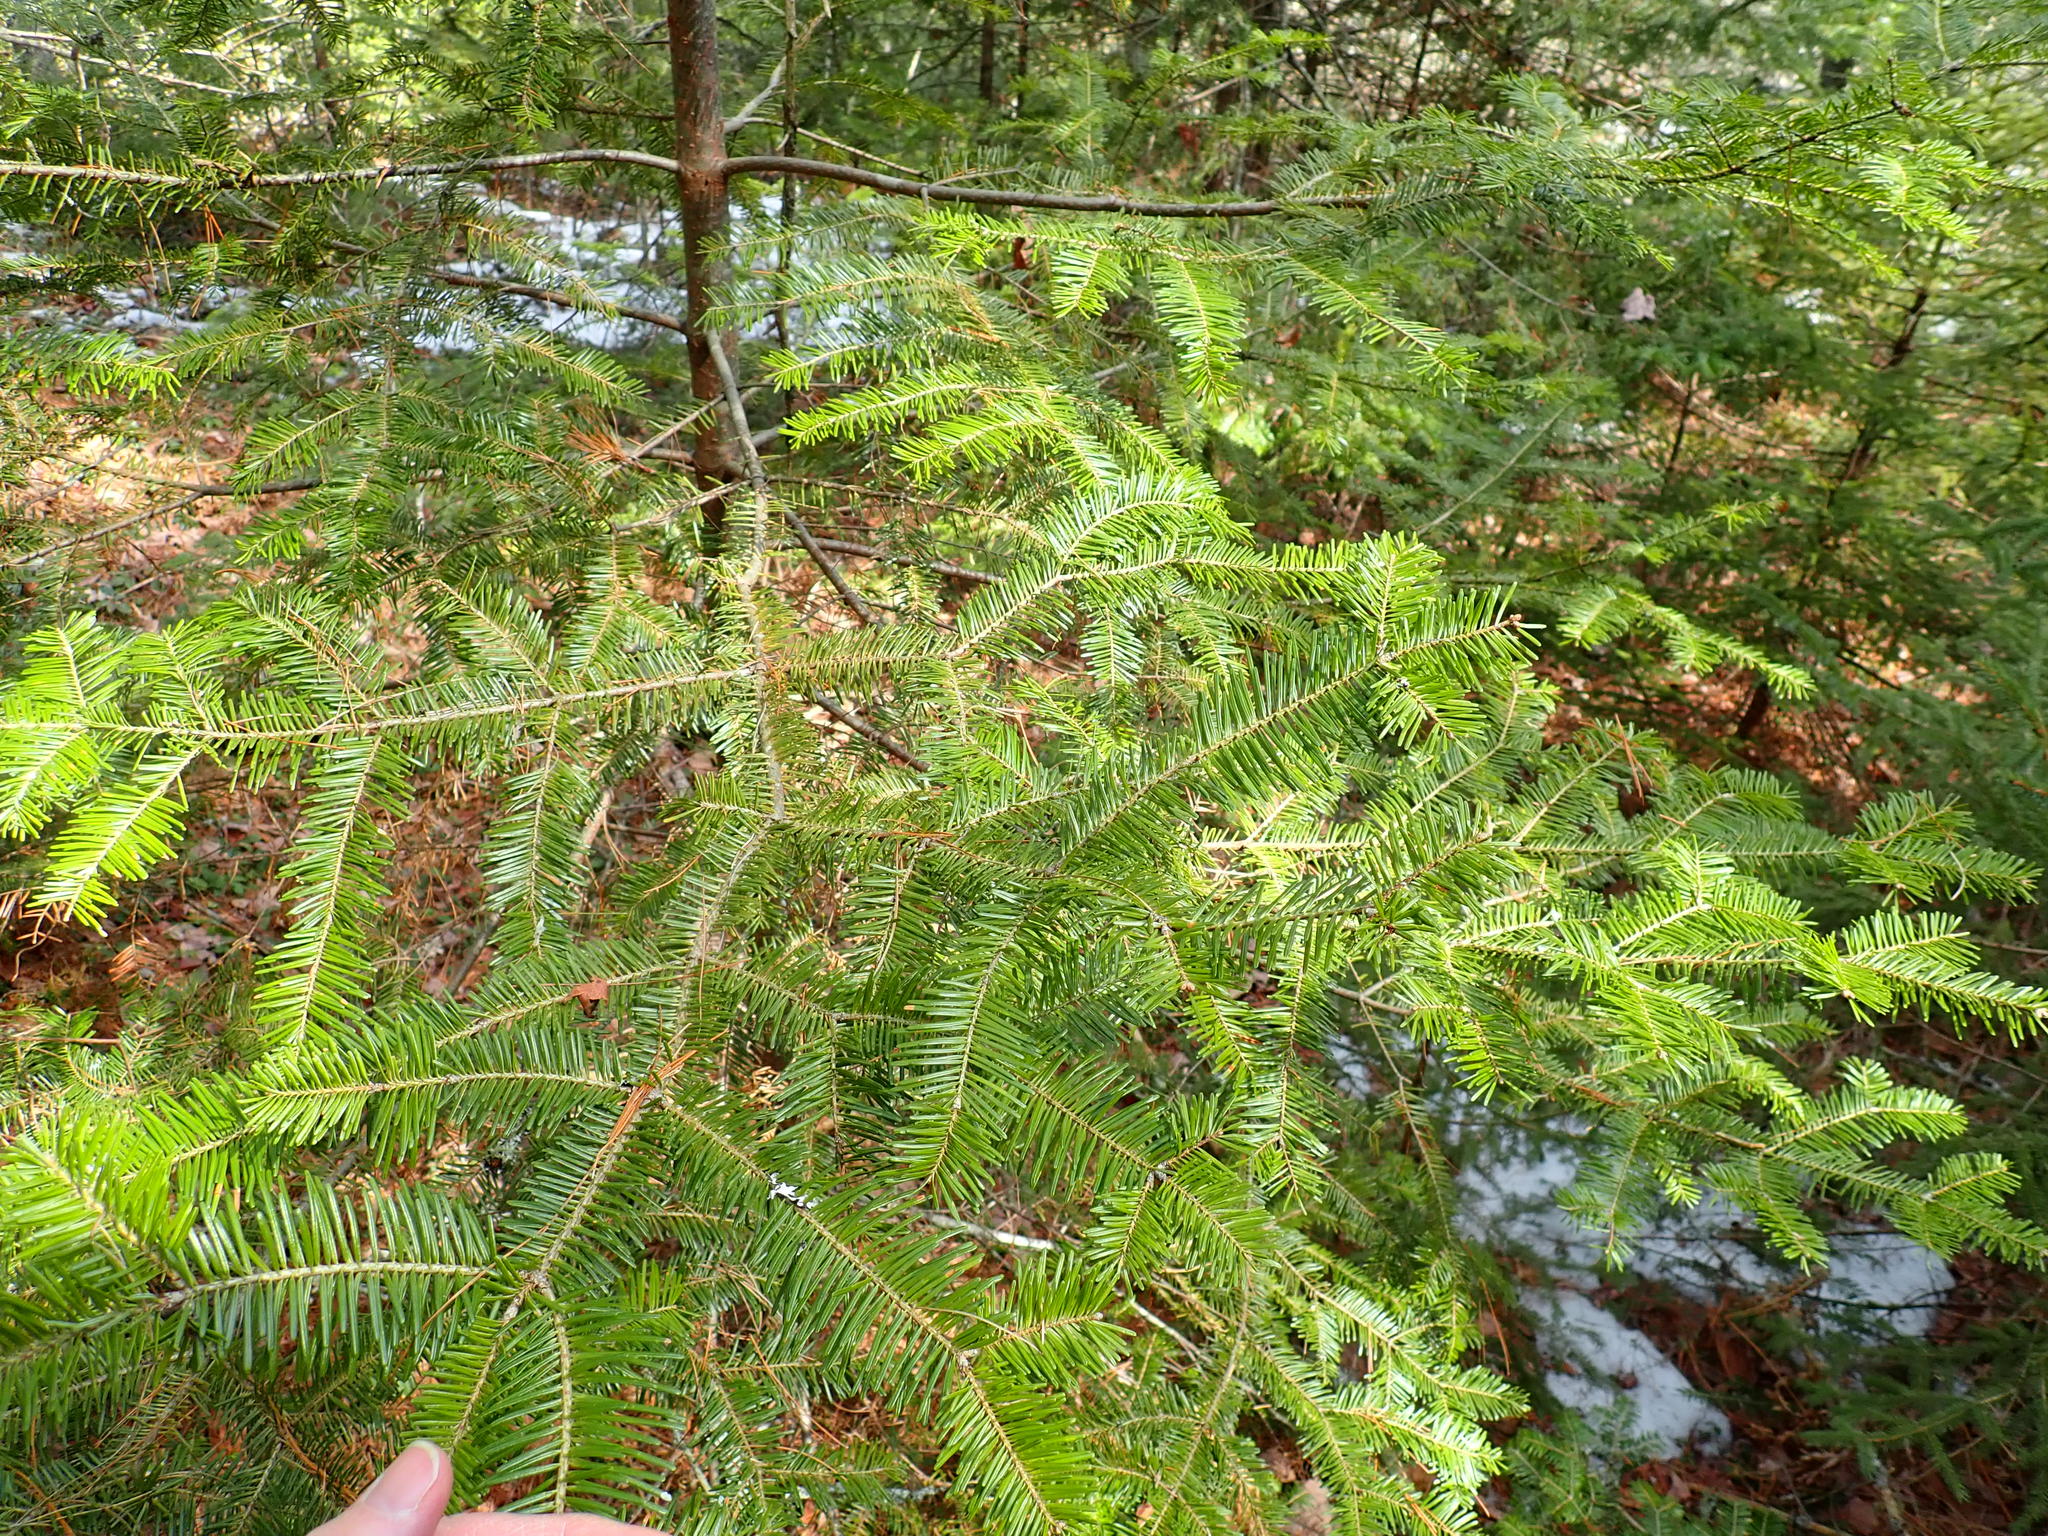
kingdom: Plantae
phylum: Tracheophyta
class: Pinopsida
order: Pinales
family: Pinaceae
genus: Abies
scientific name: Abies balsamea
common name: Balsam fir
